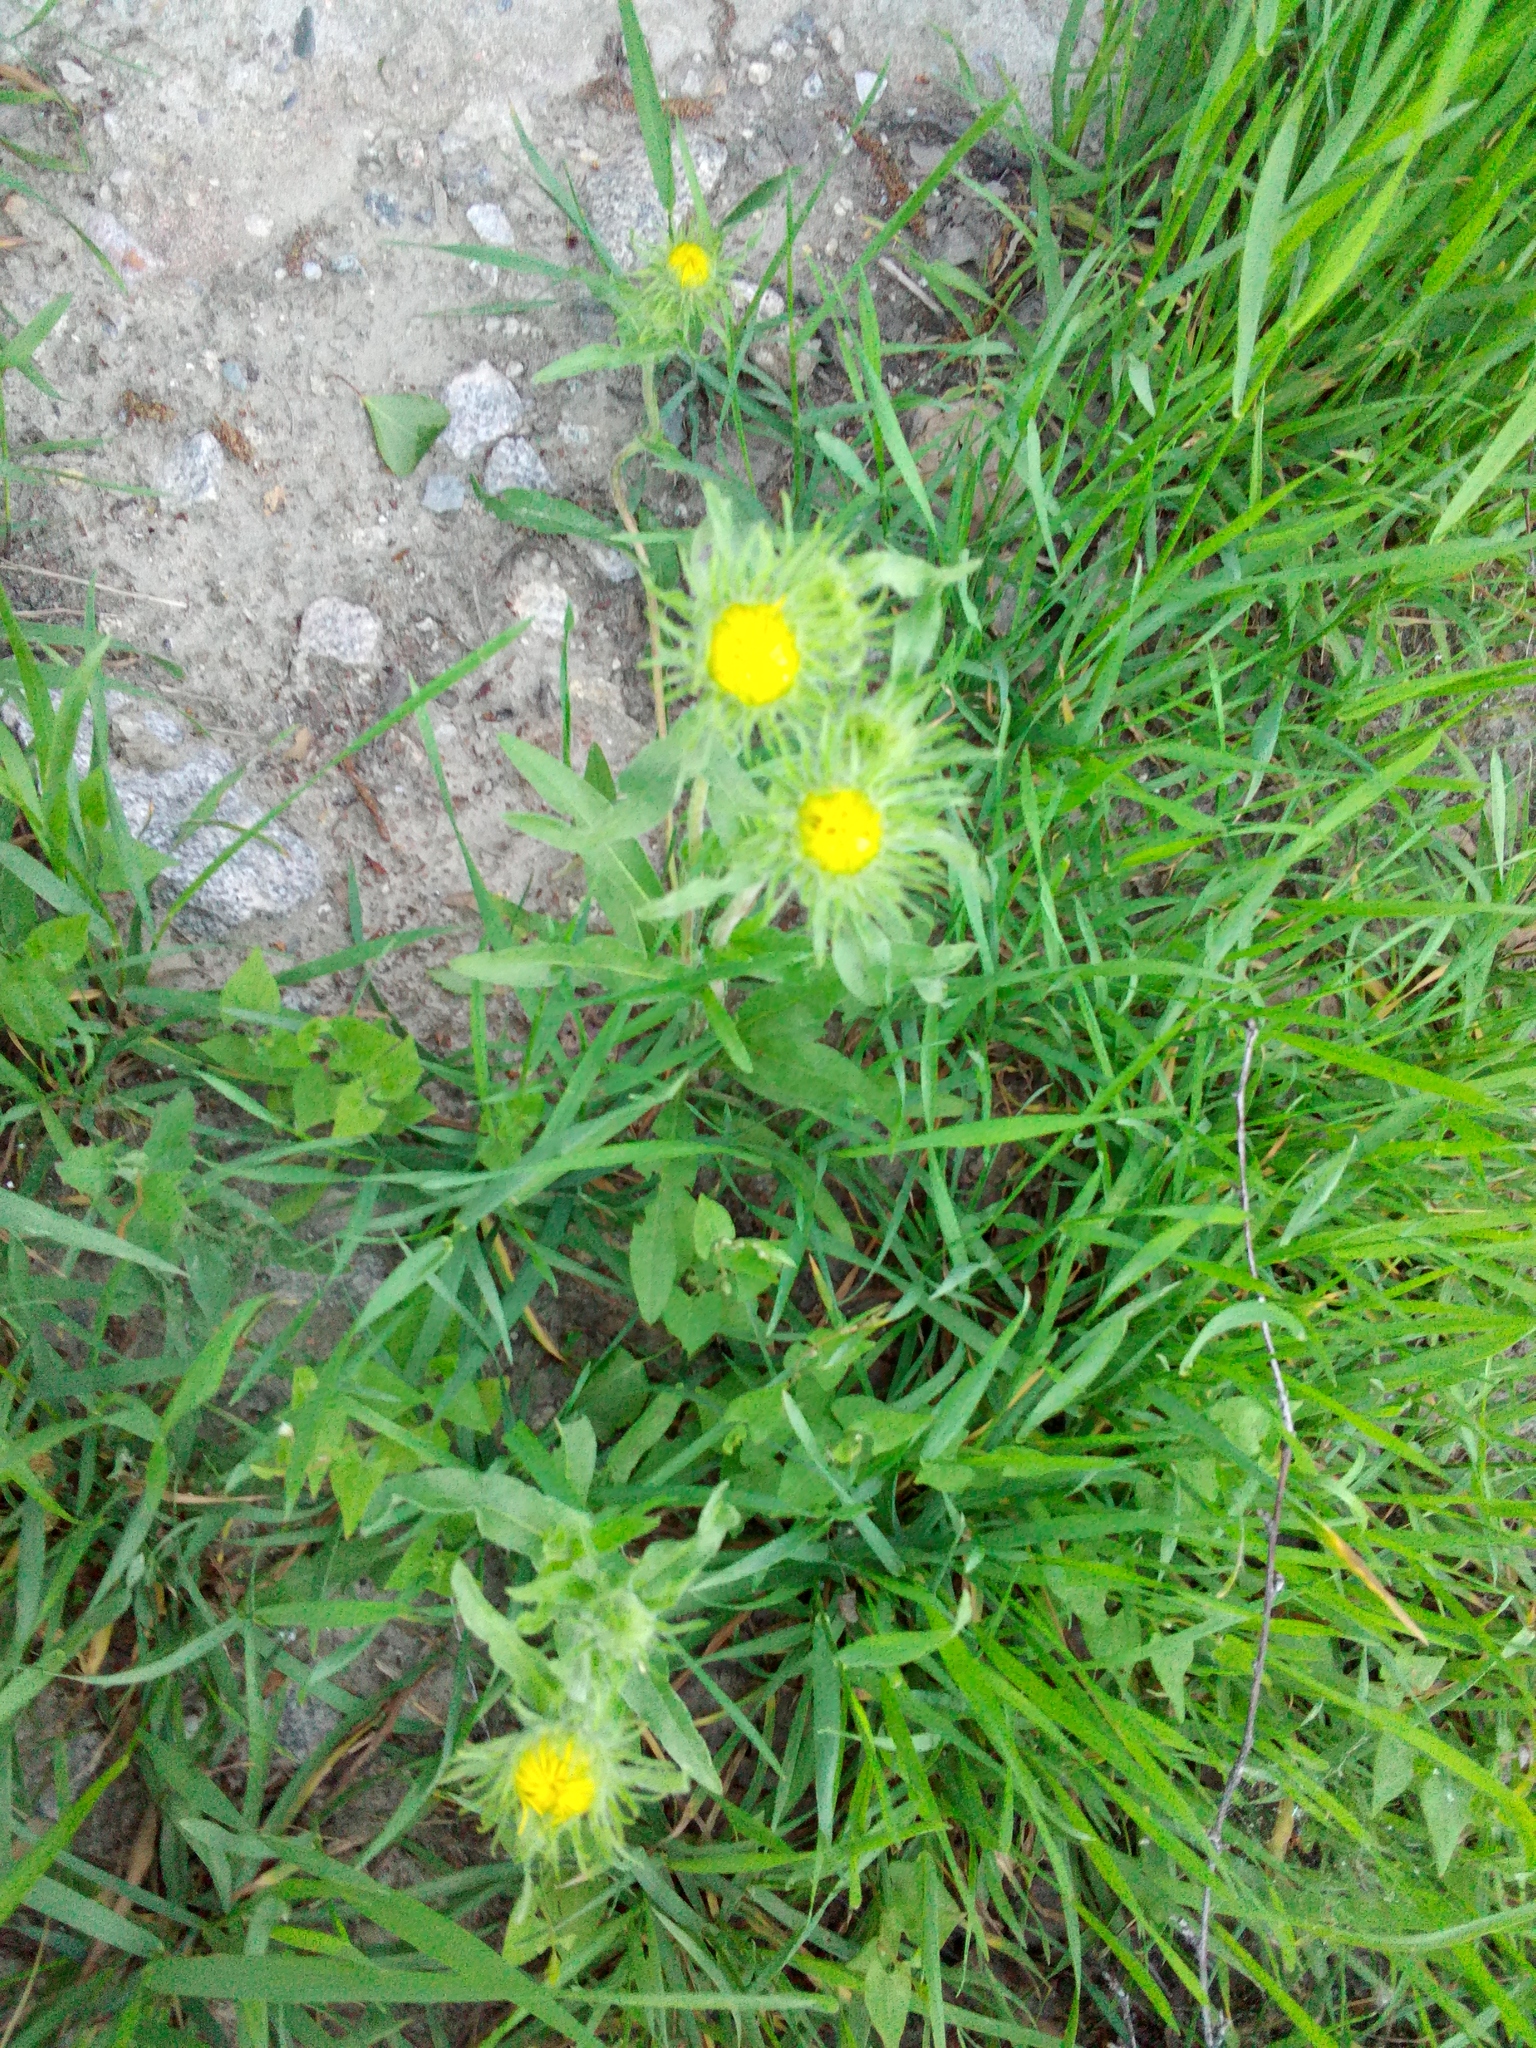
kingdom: Plantae
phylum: Tracheophyta
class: Magnoliopsida
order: Asterales
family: Asteraceae
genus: Pentanema
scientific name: Pentanema britannicum
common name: British elecampane
